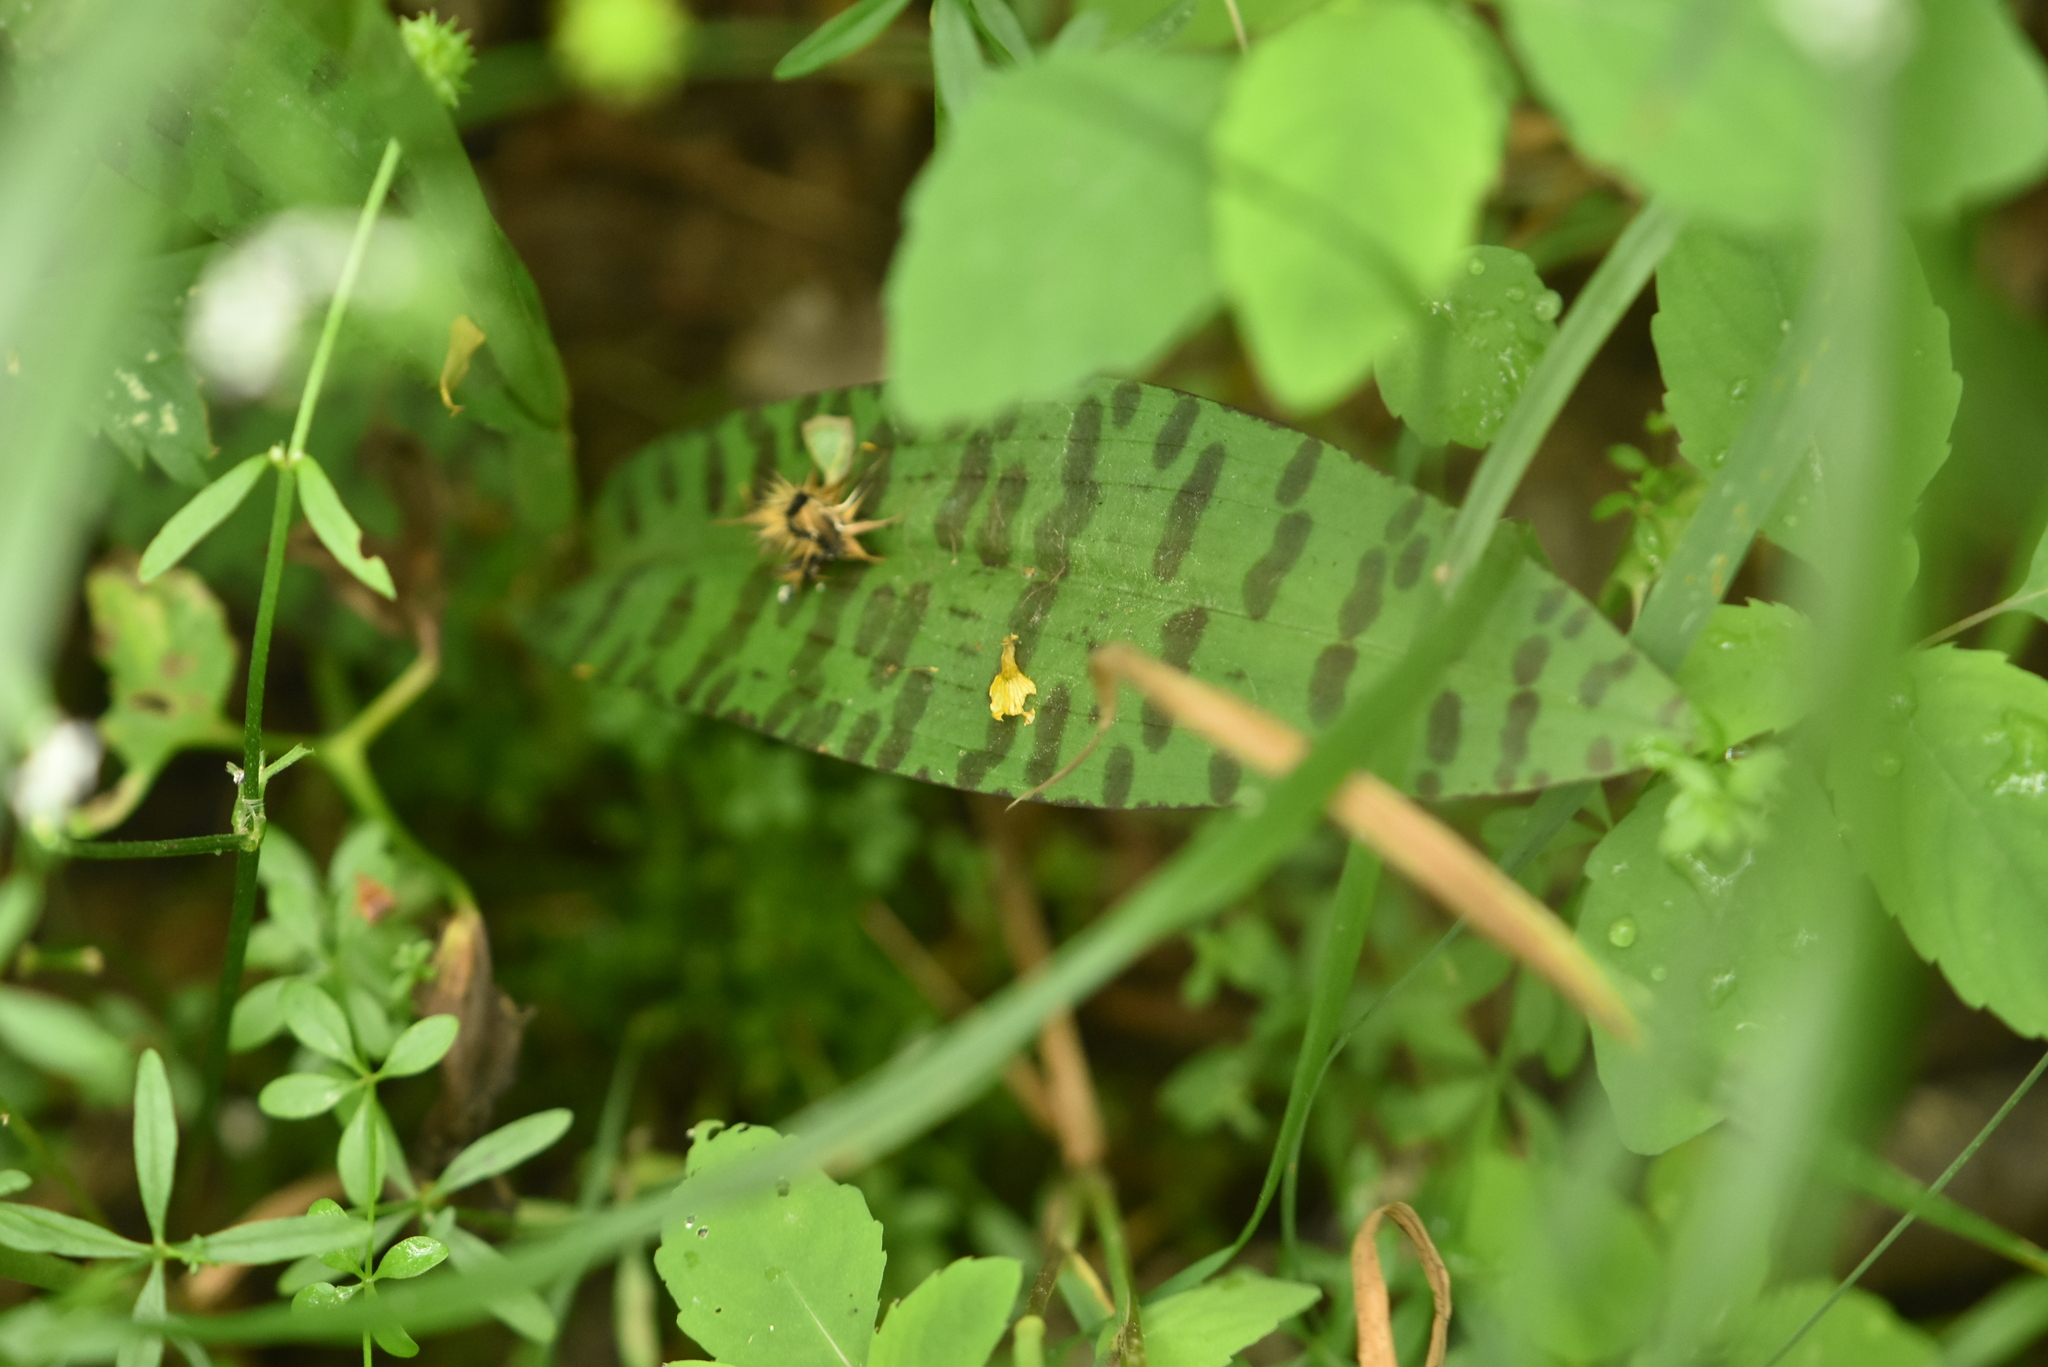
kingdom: Plantae
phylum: Tracheophyta
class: Liliopsida
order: Asparagales
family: Orchidaceae
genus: Dactylorhiza
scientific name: Dactylorhiza maculata
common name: Heath spotted-orchid
